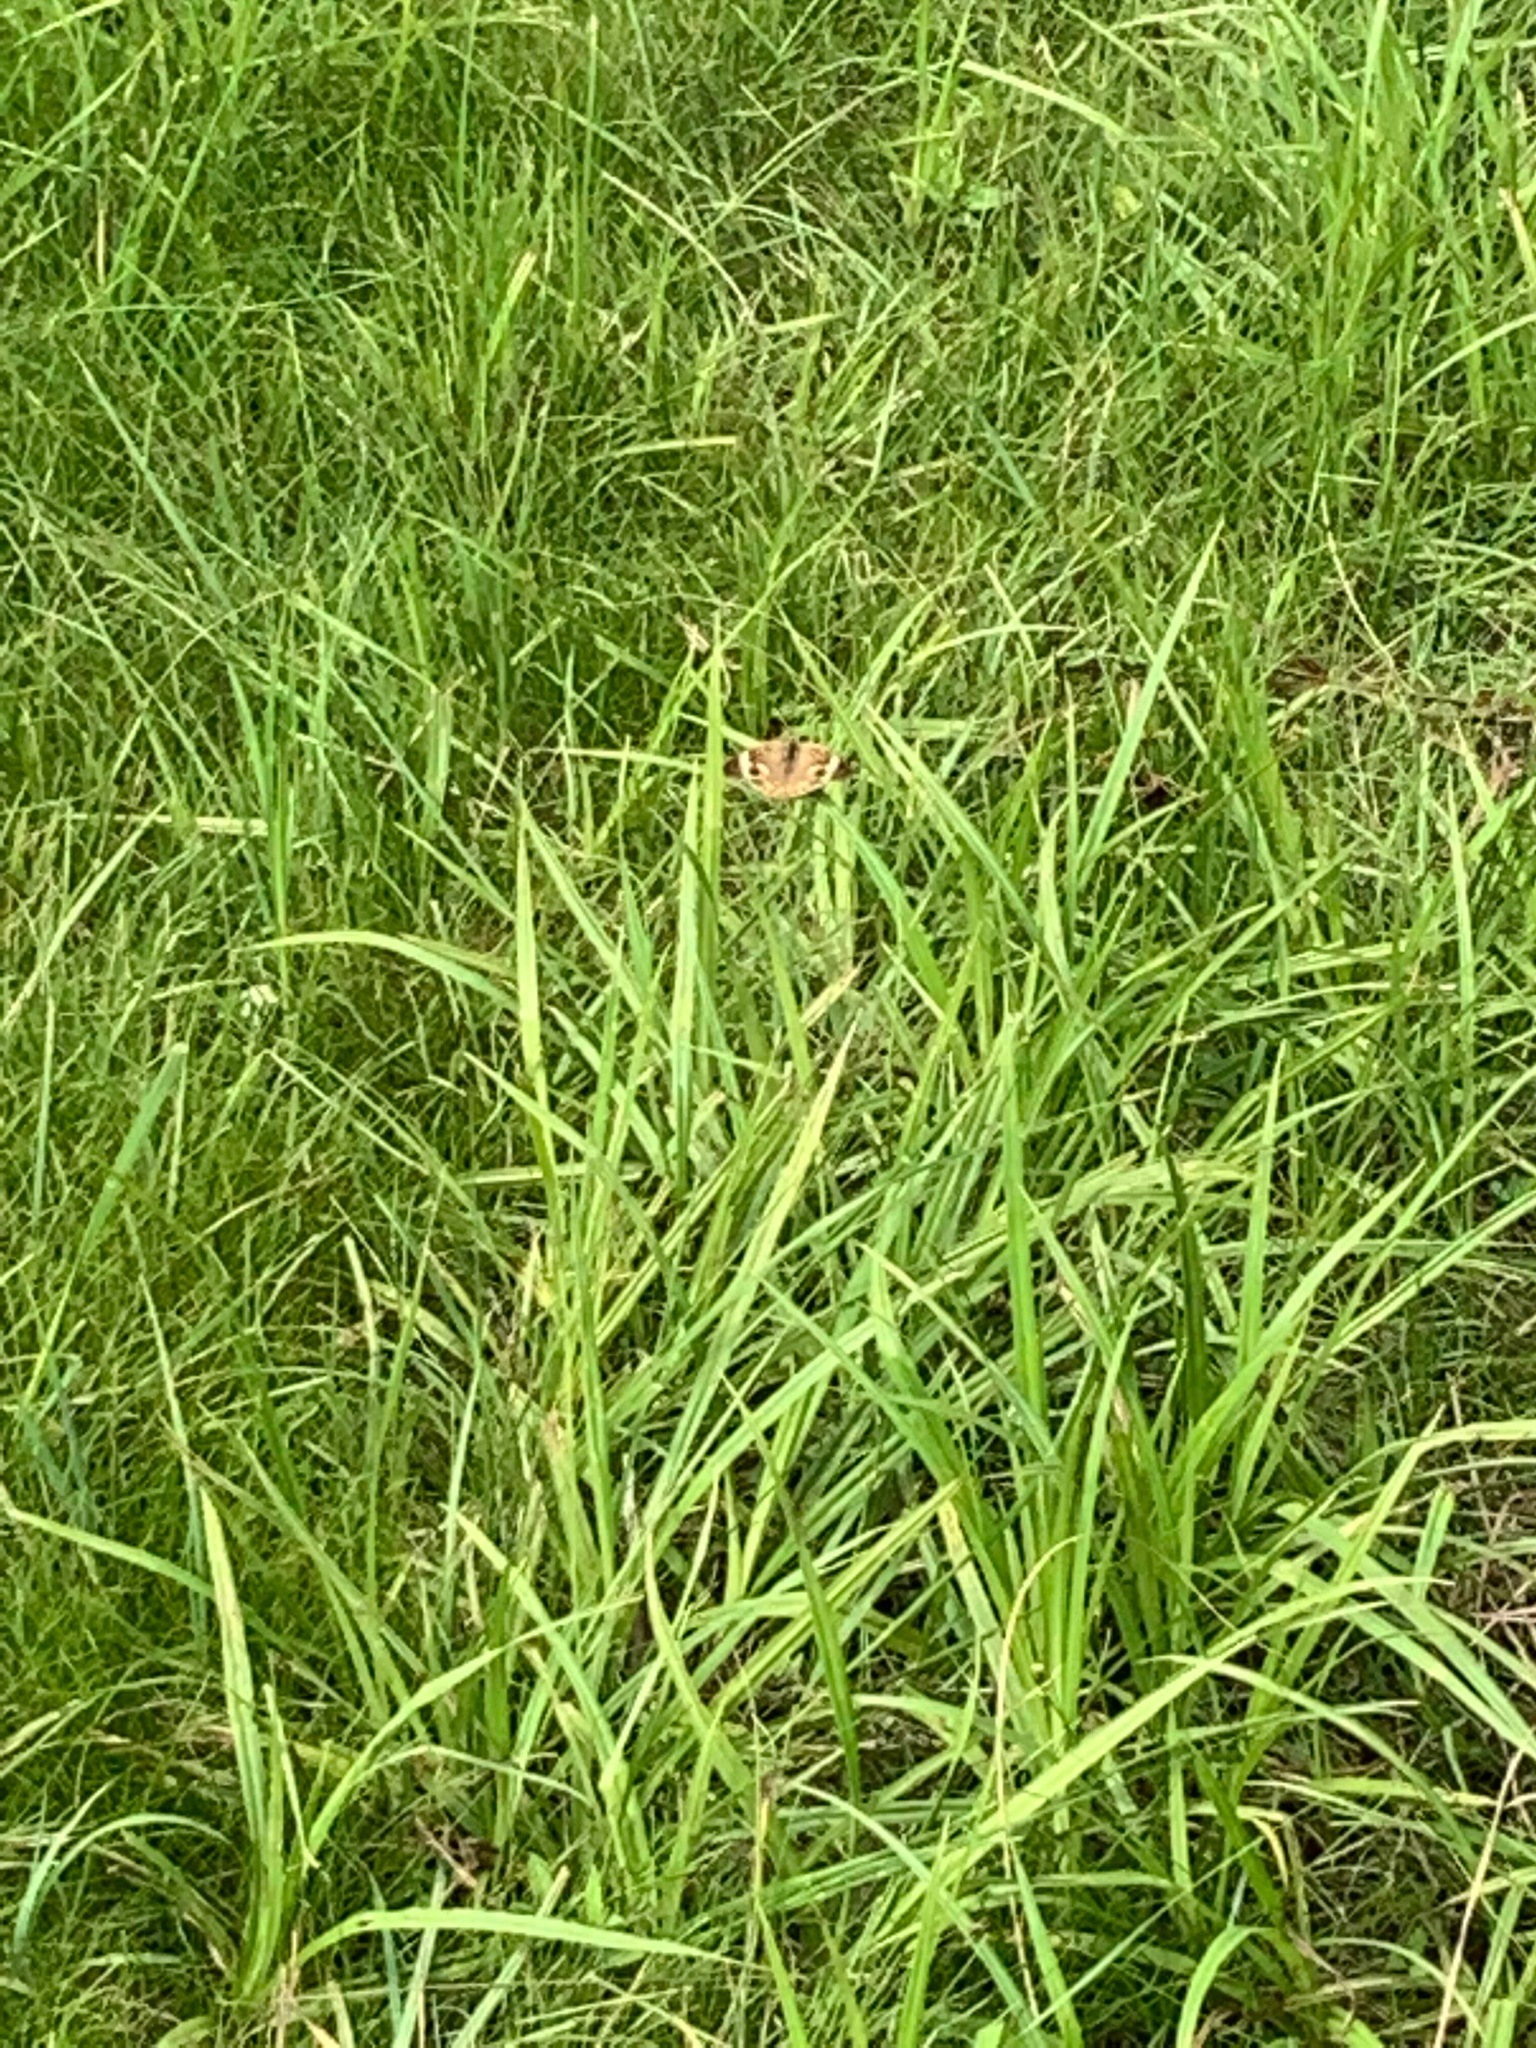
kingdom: Animalia
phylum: Arthropoda
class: Insecta
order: Lepidoptera
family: Nymphalidae
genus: Junonia
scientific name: Junonia coenia
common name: Common buckeye
